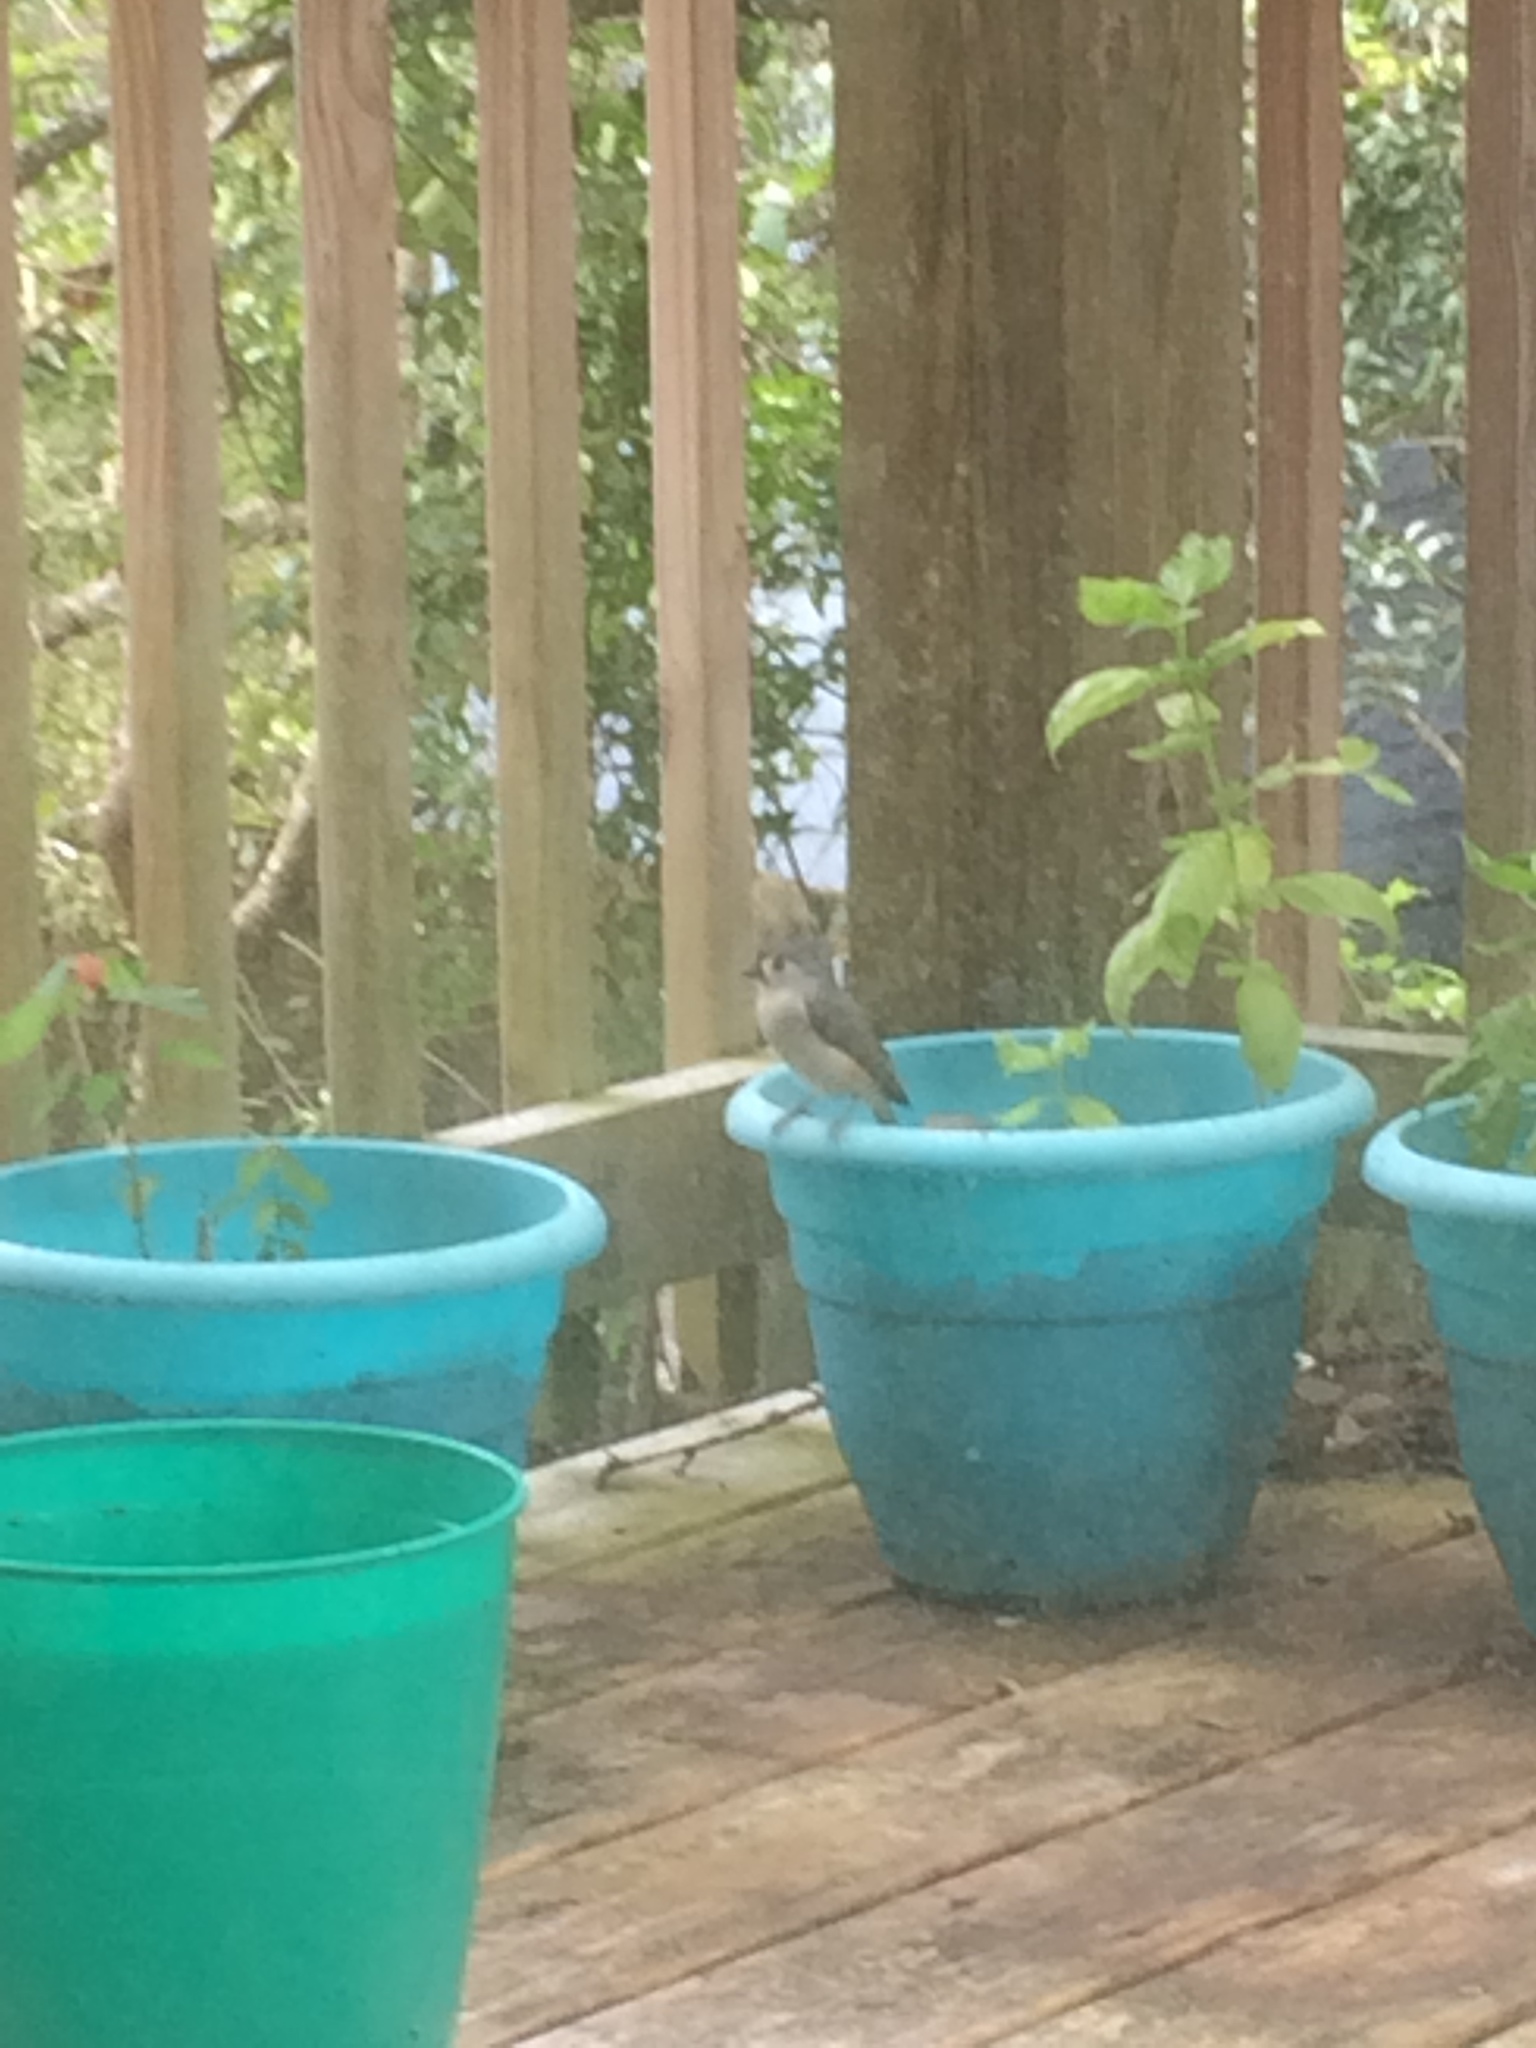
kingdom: Animalia
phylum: Chordata
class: Aves
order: Passeriformes
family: Paridae
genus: Baeolophus
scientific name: Baeolophus bicolor
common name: Tufted titmouse
